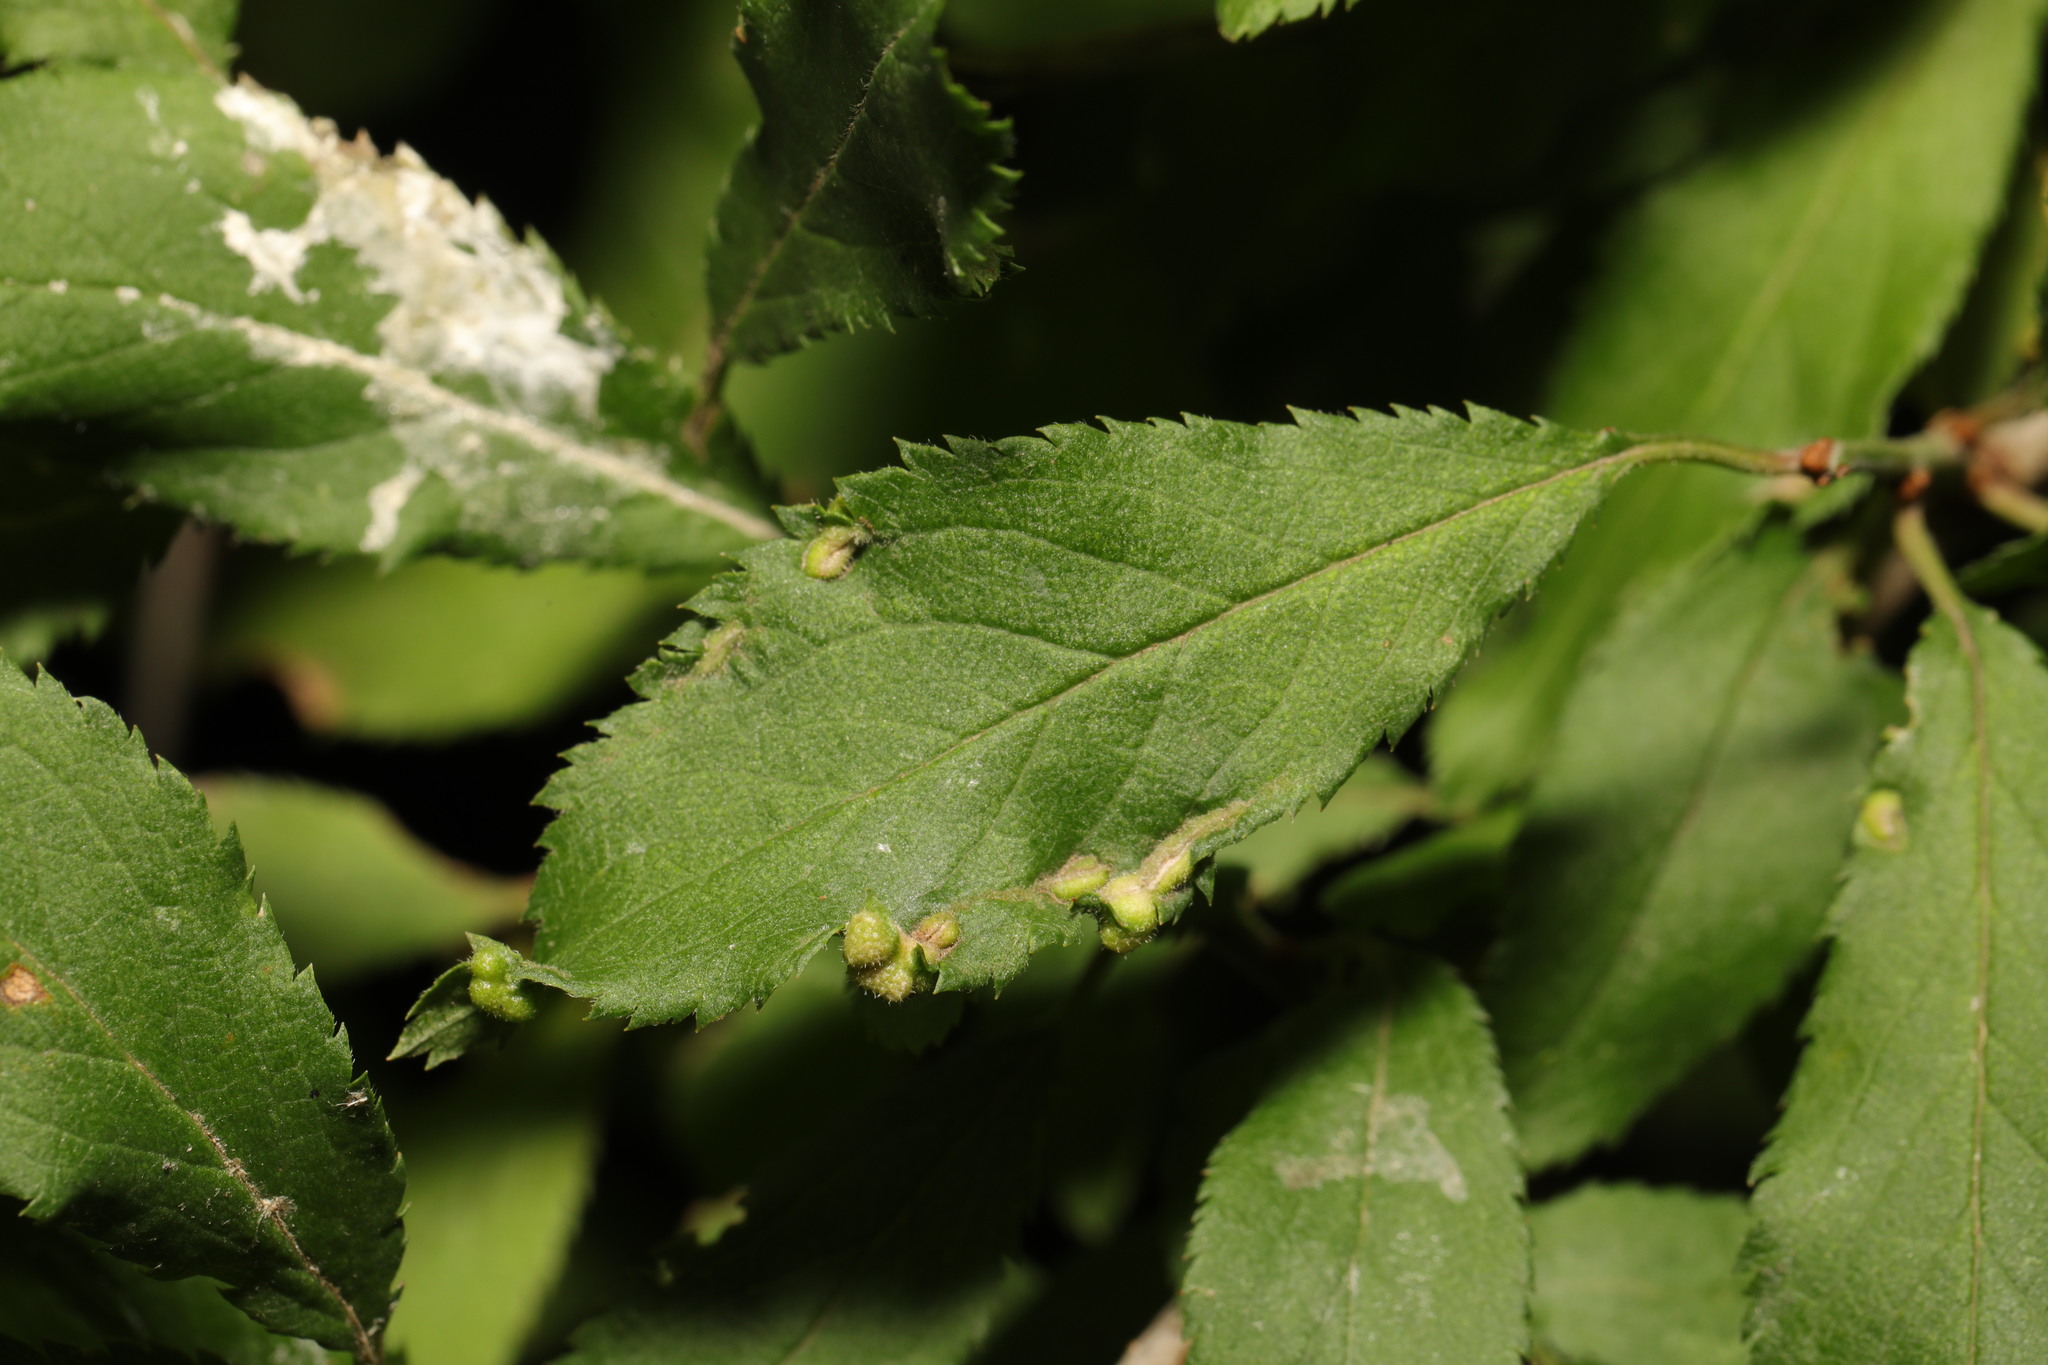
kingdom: Animalia
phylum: Arthropoda
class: Arachnida
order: Trombidiformes
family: Eriophyidae
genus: Eriophyes
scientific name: Eriophyes similis
